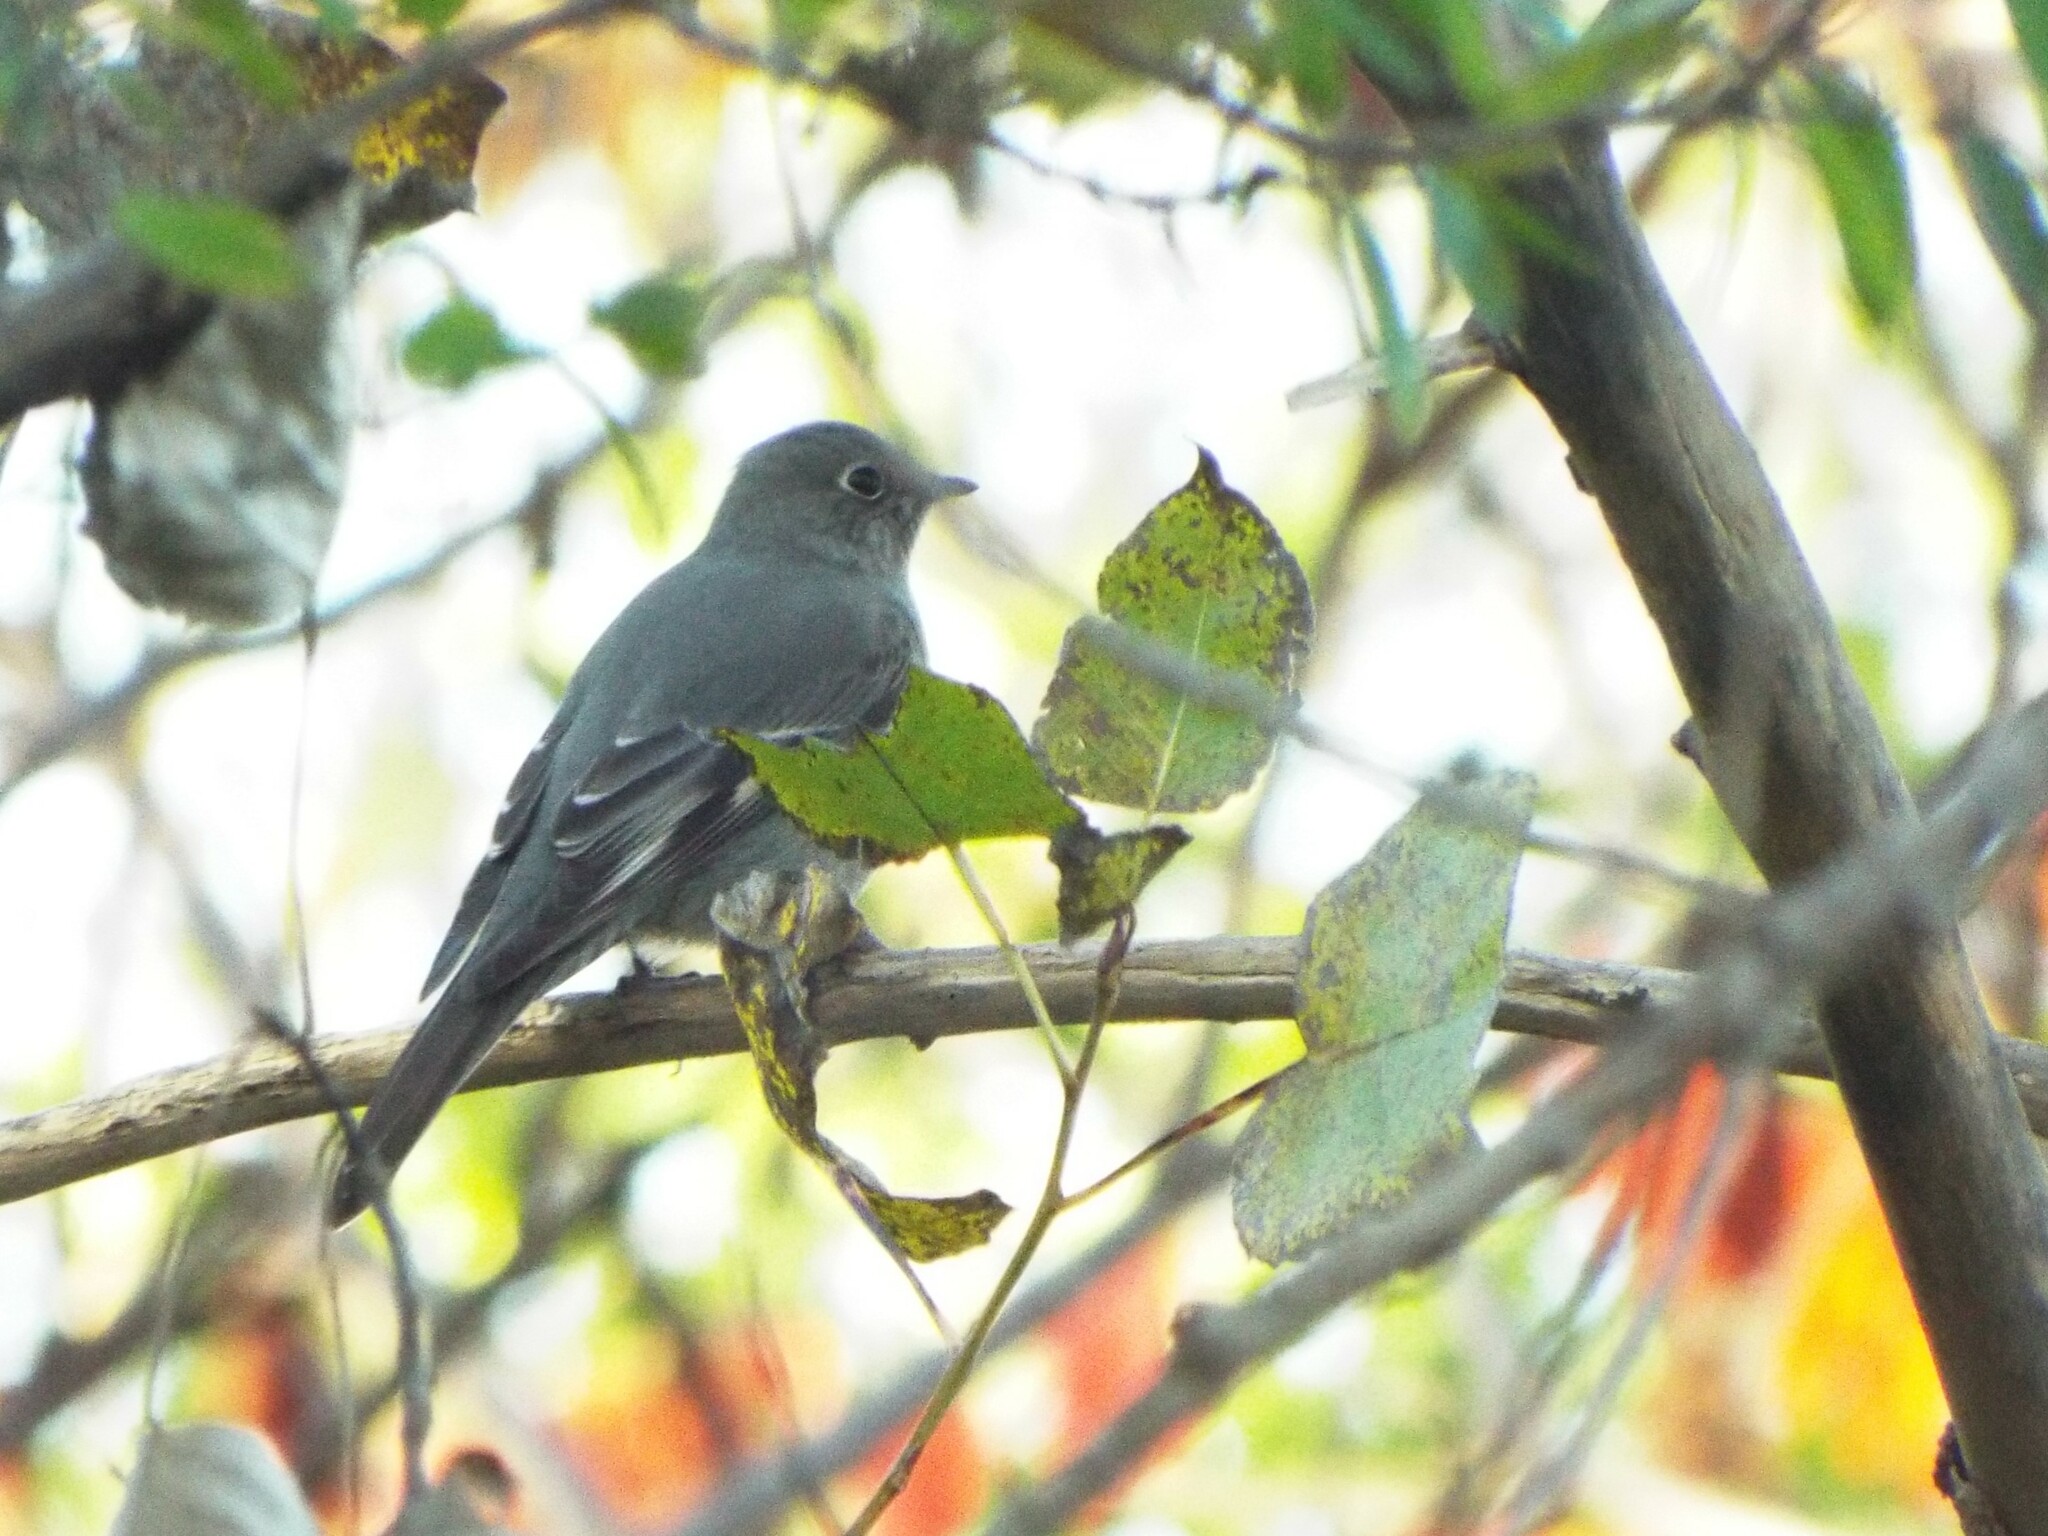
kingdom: Animalia
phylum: Chordata
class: Aves
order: Passeriformes
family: Turdidae
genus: Myadestes
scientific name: Myadestes townsendi
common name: Townsend's solitaire
